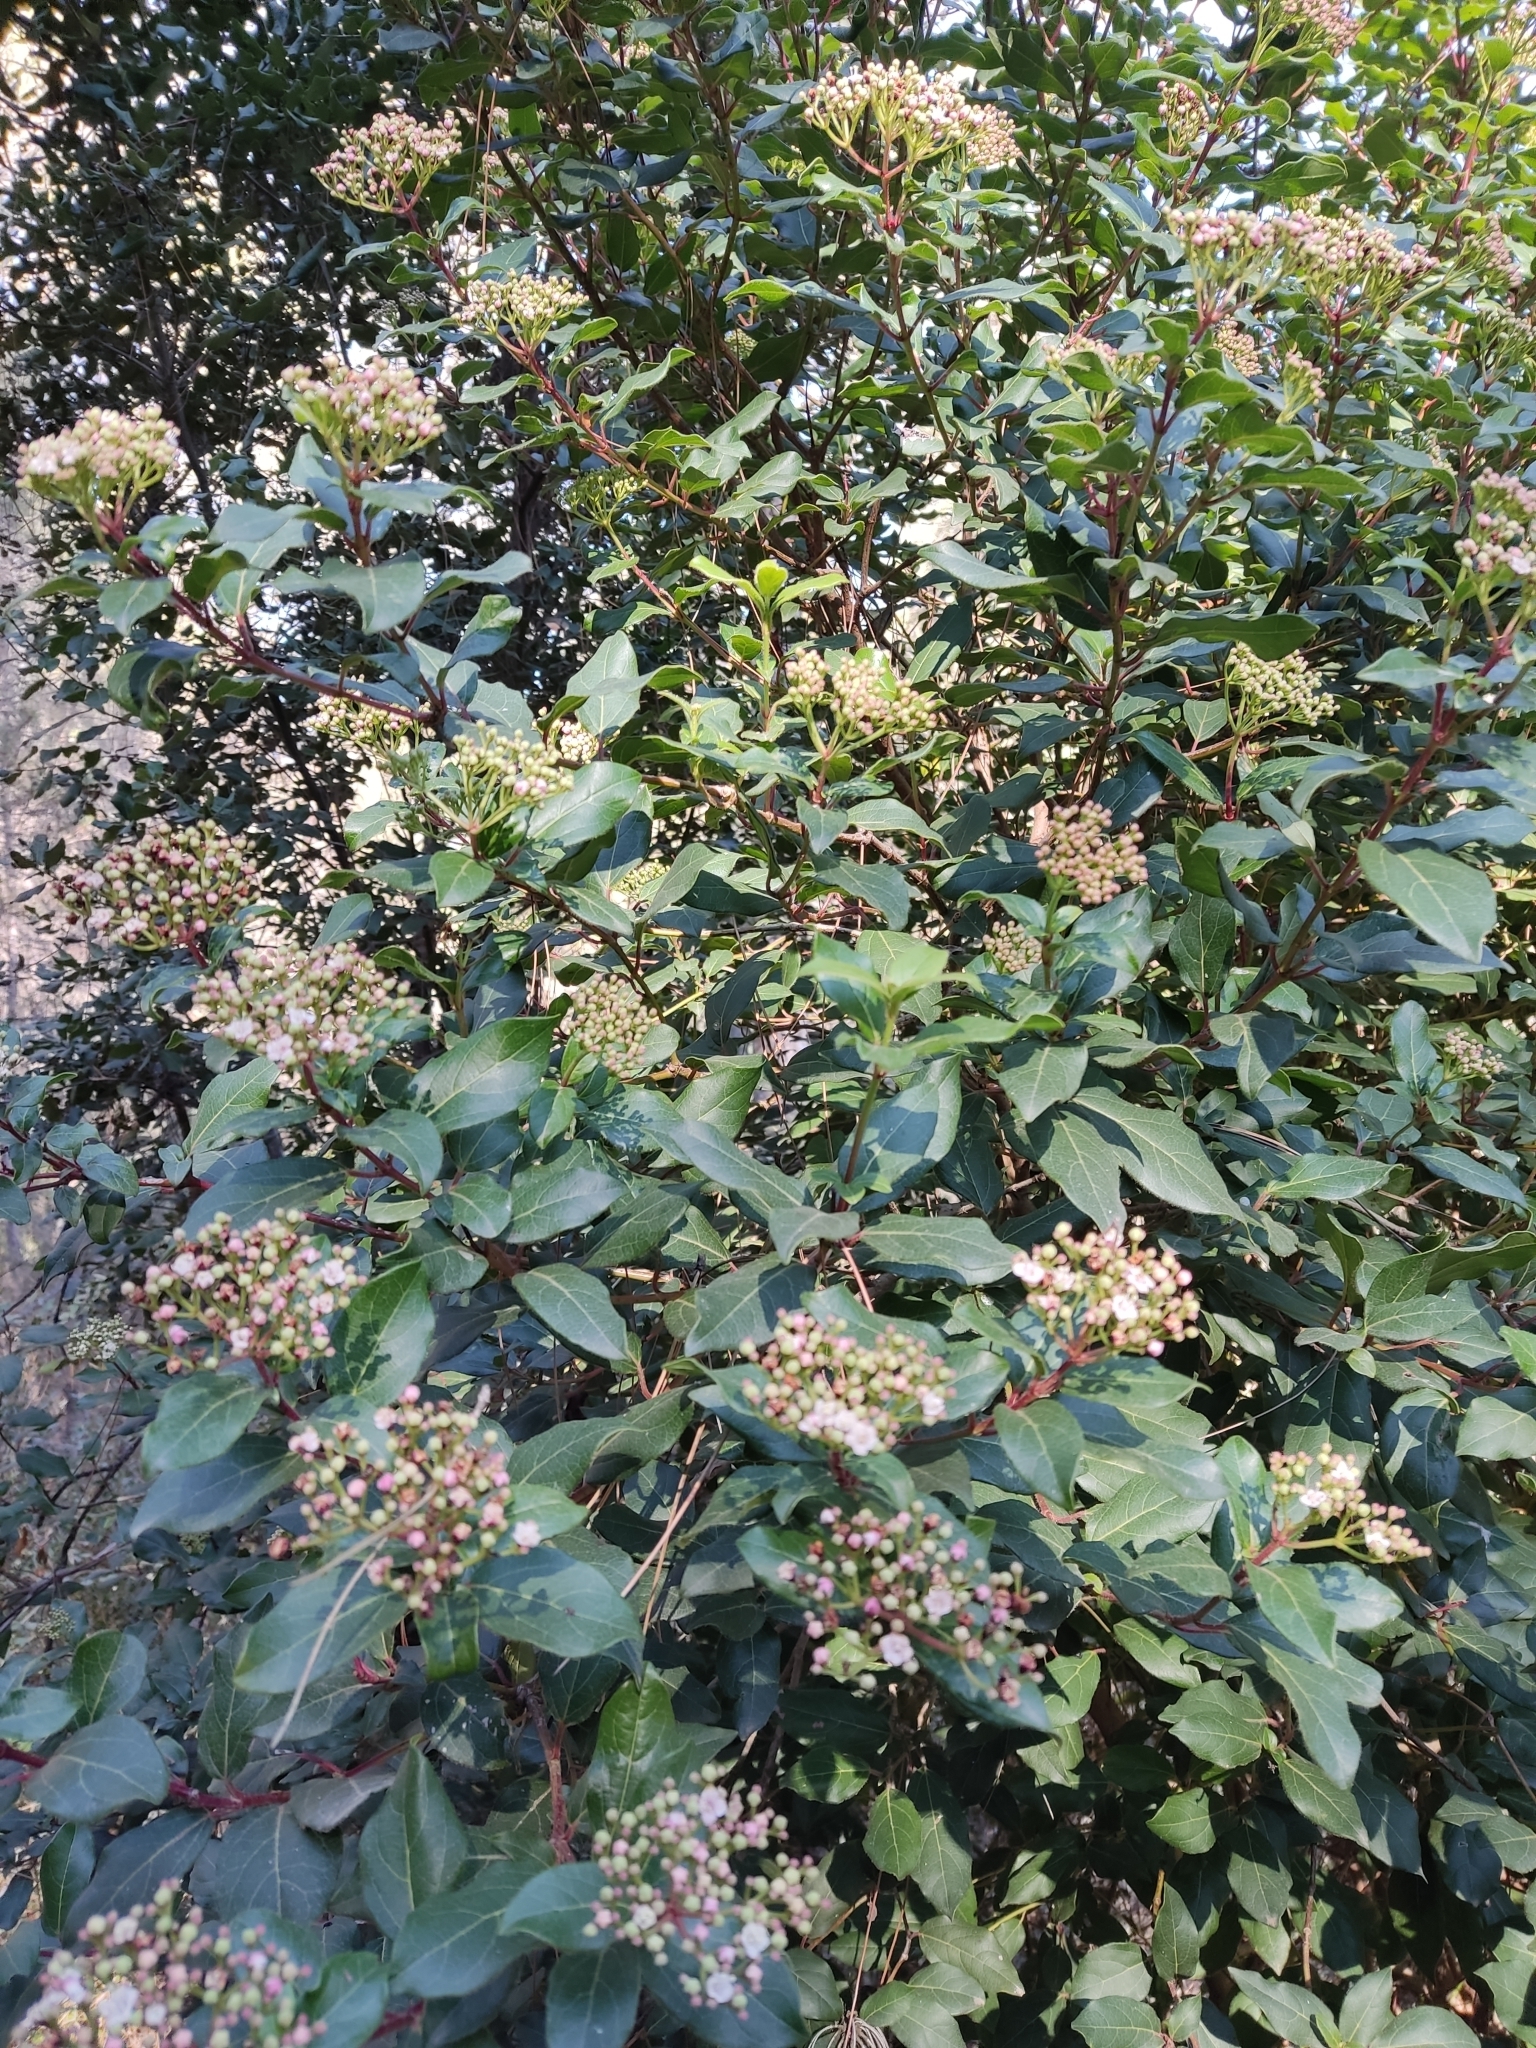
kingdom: Plantae
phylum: Tracheophyta
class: Magnoliopsida
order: Dipsacales
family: Viburnaceae
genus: Viburnum
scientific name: Viburnum tinus
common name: Laurustinus
